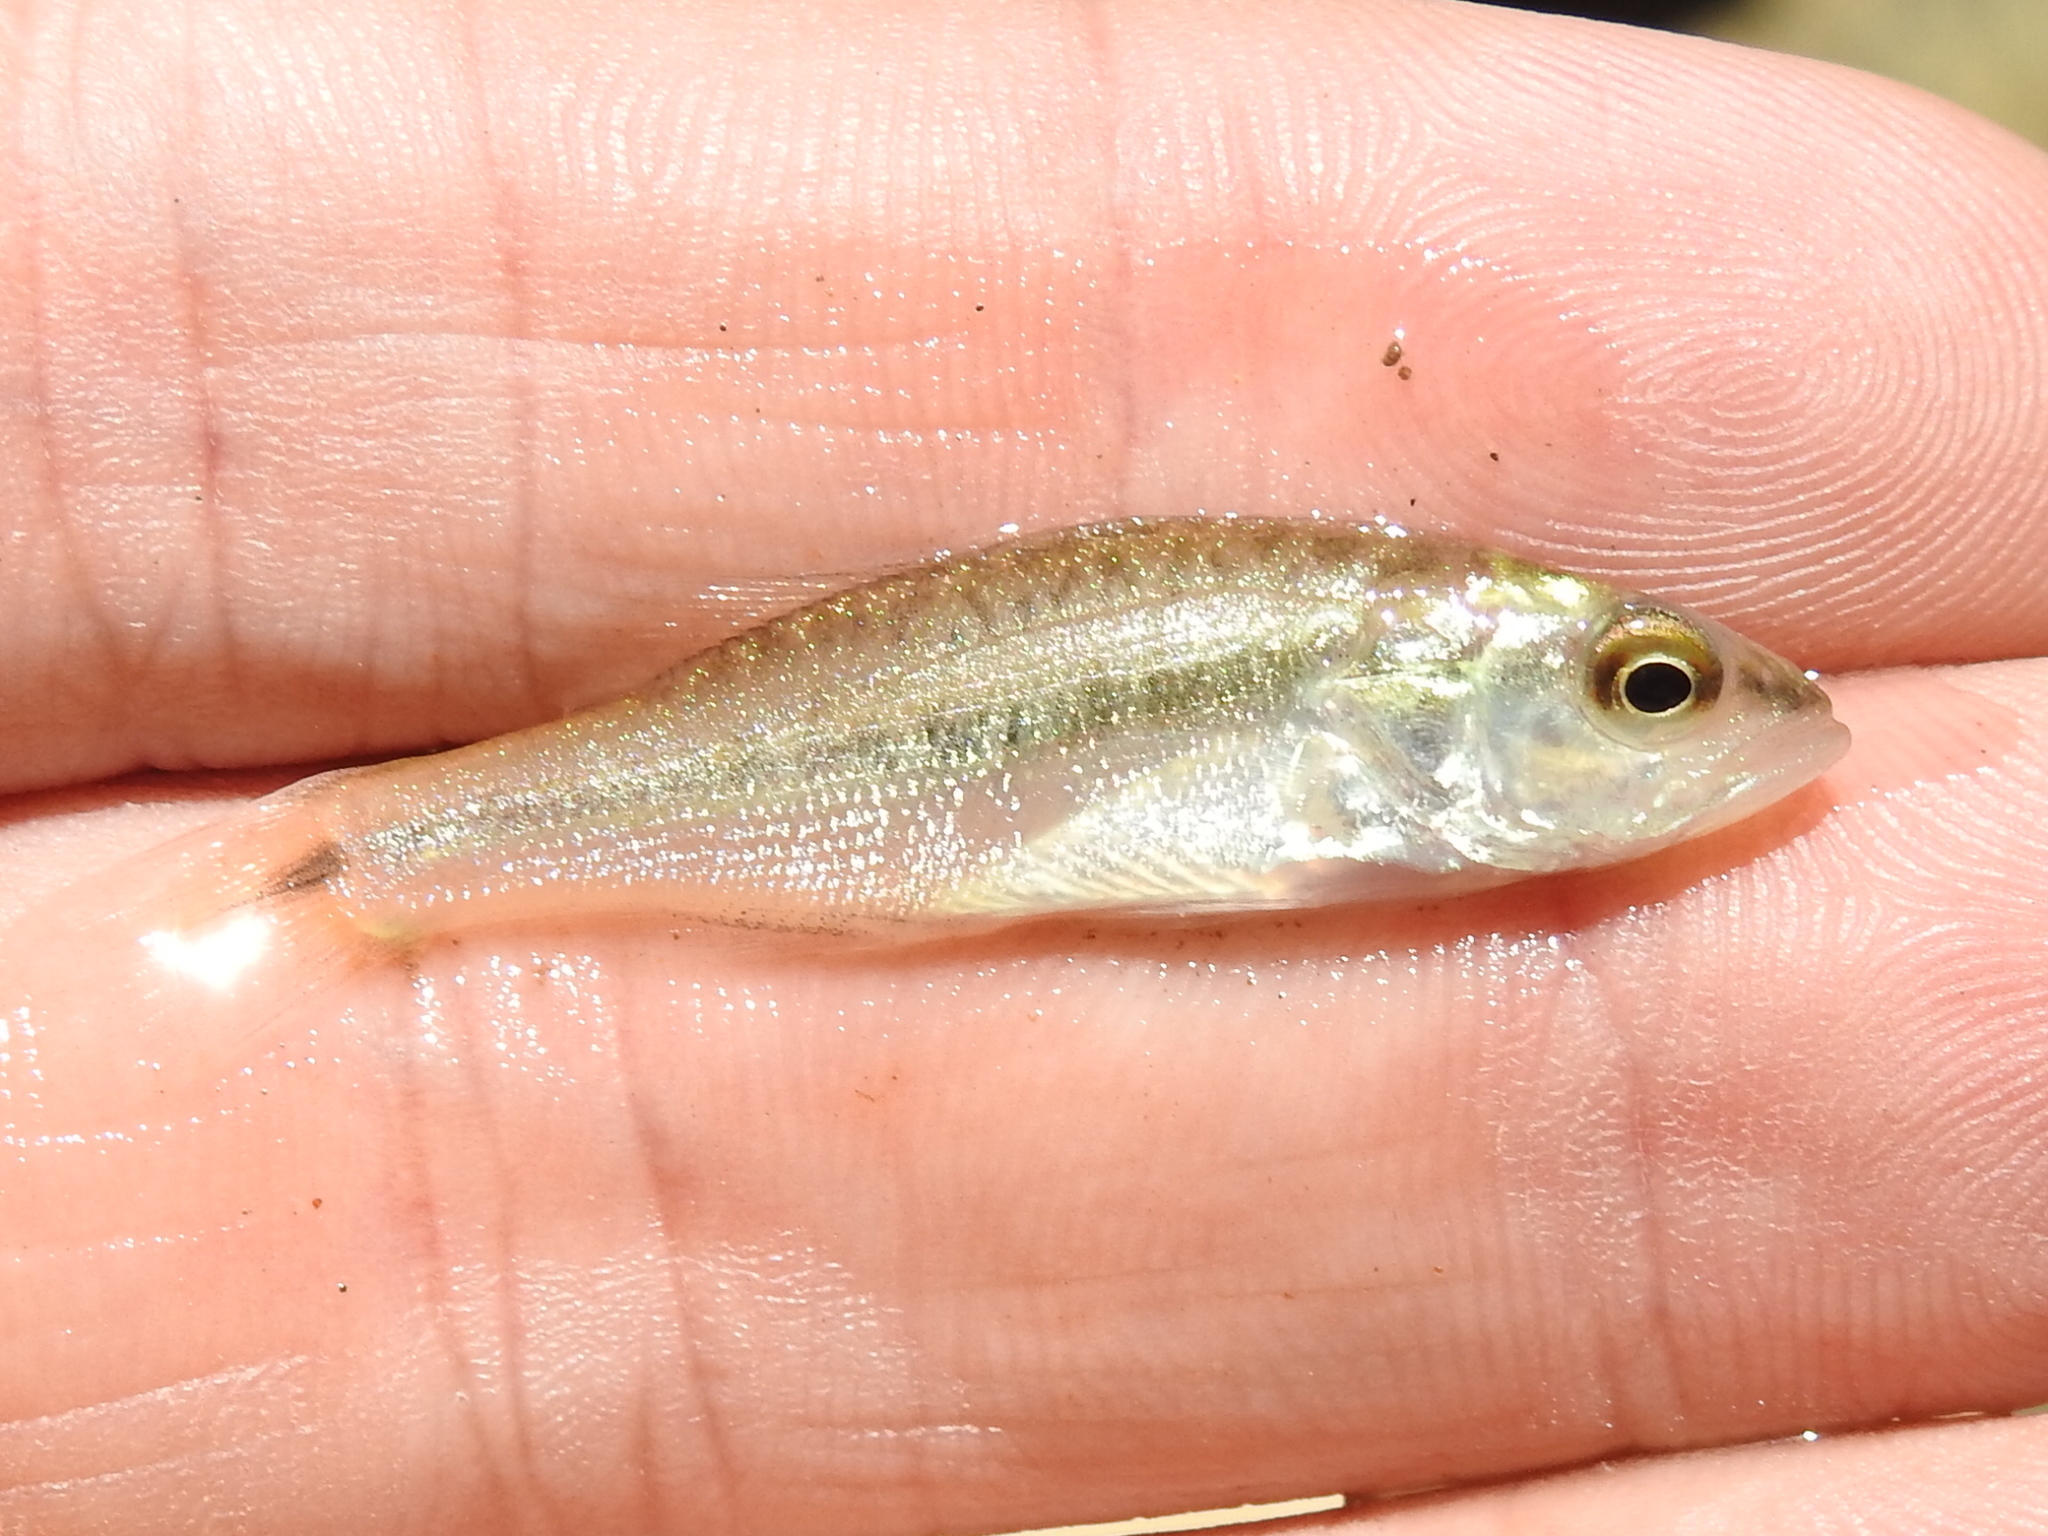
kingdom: Animalia
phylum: Chordata
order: Perciformes
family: Centrarchidae
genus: Micropterus
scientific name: Micropterus
